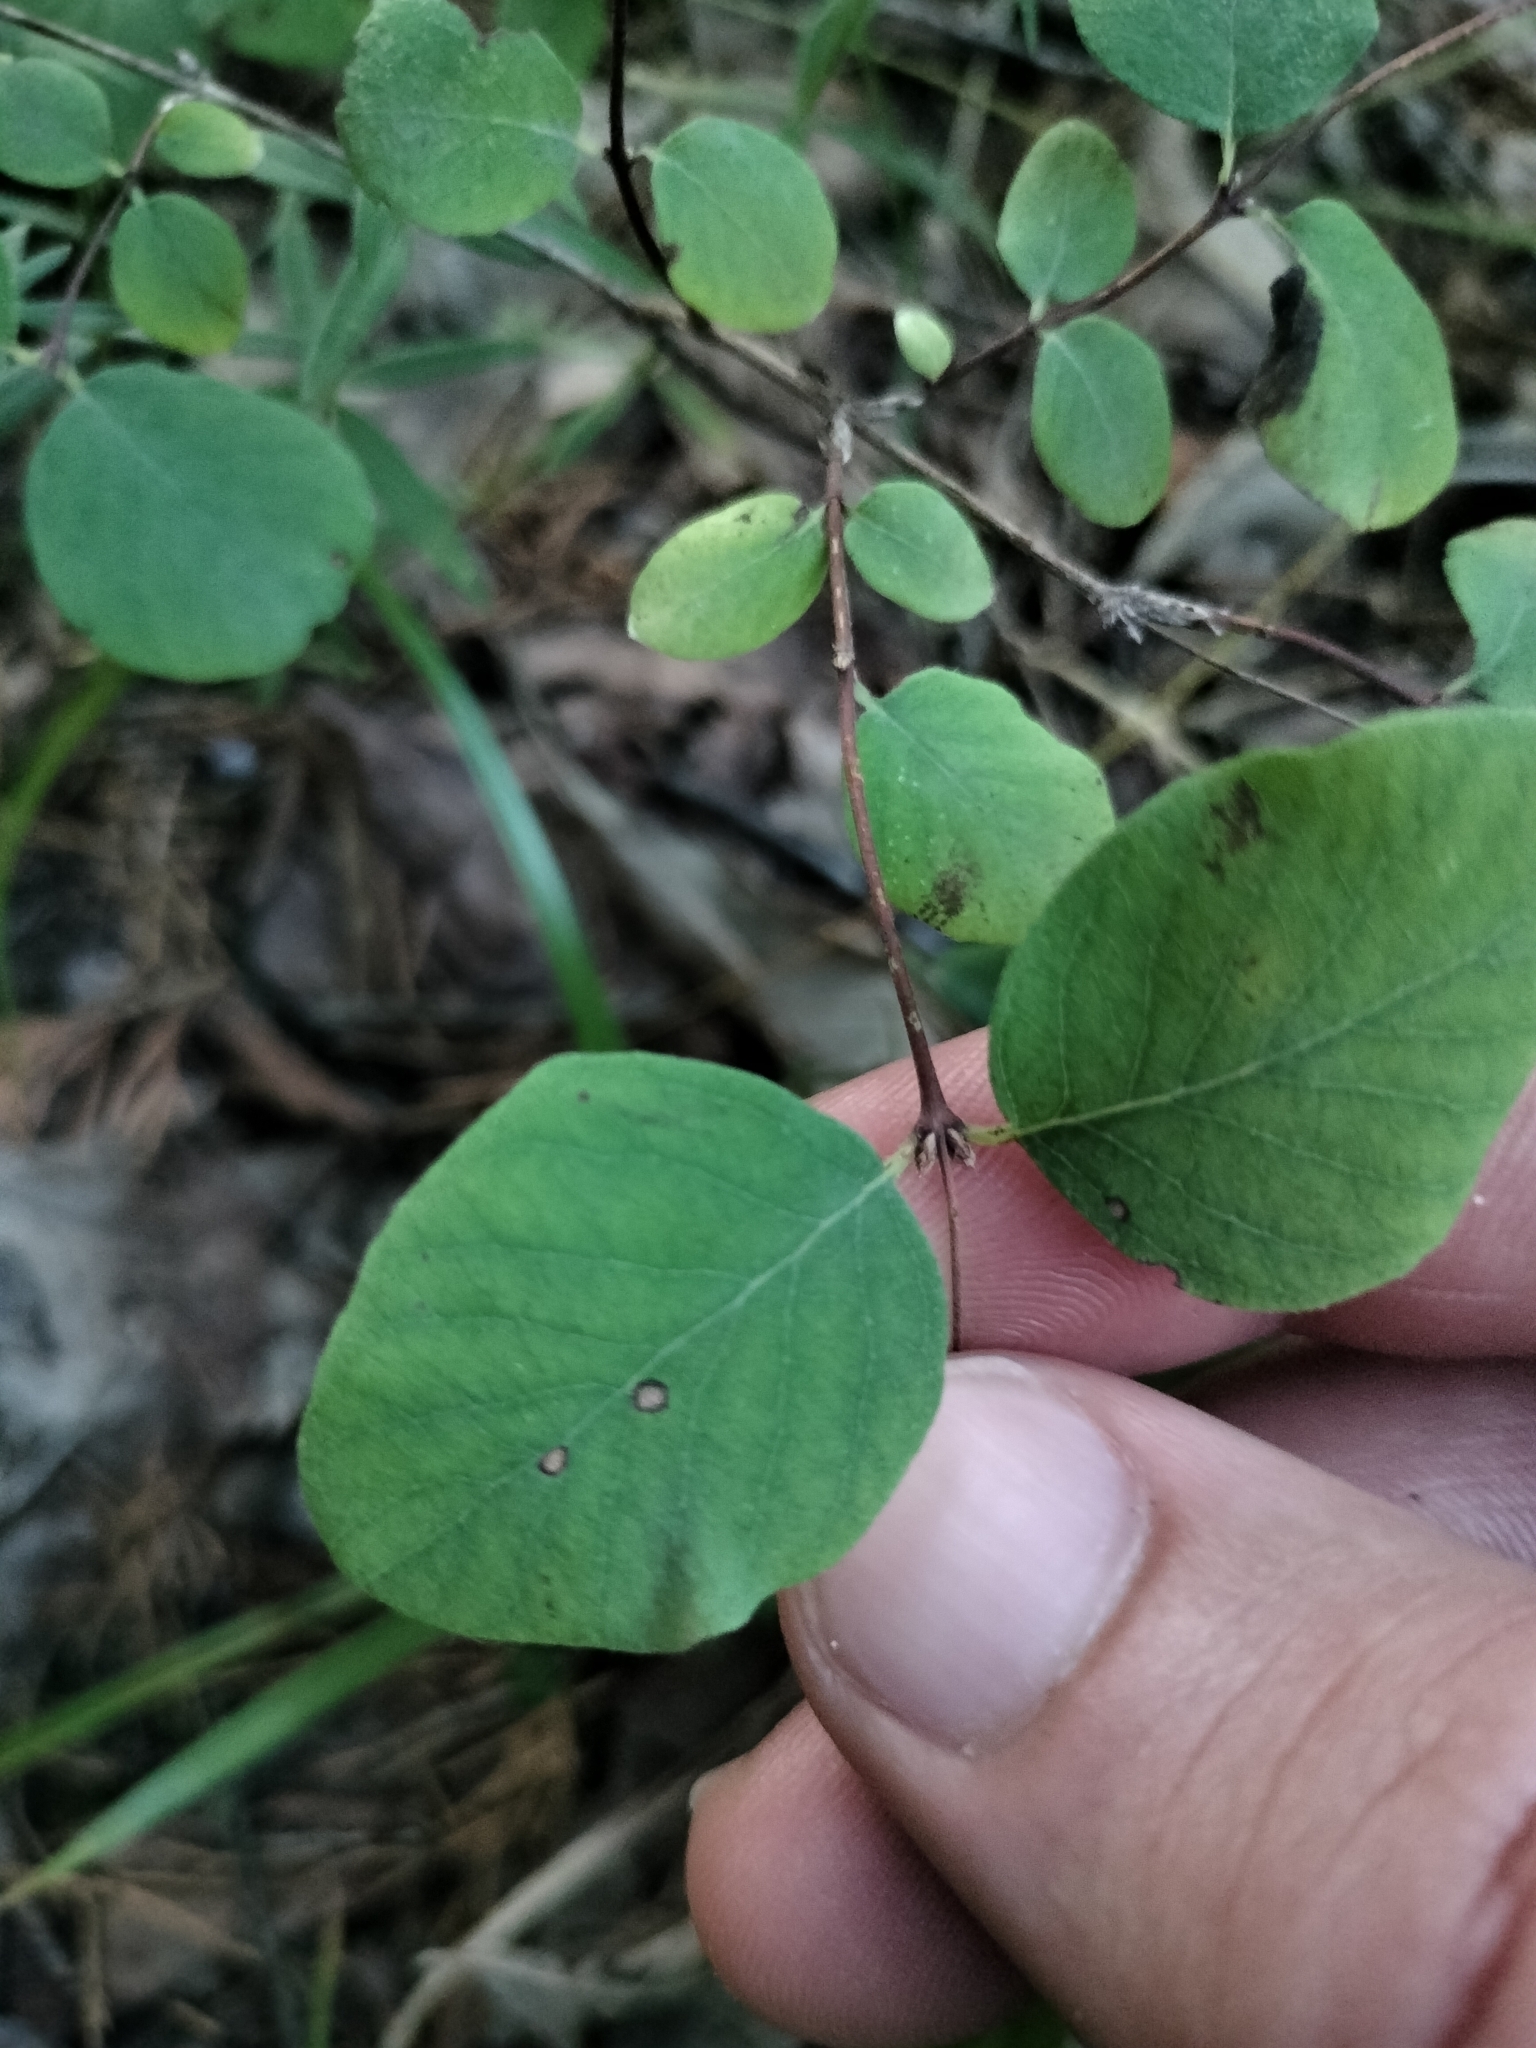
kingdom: Plantae
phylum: Tracheophyta
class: Magnoliopsida
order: Dipsacales
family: Caprifoliaceae
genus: Symphoricarpos
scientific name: Symphoricarpos albus
